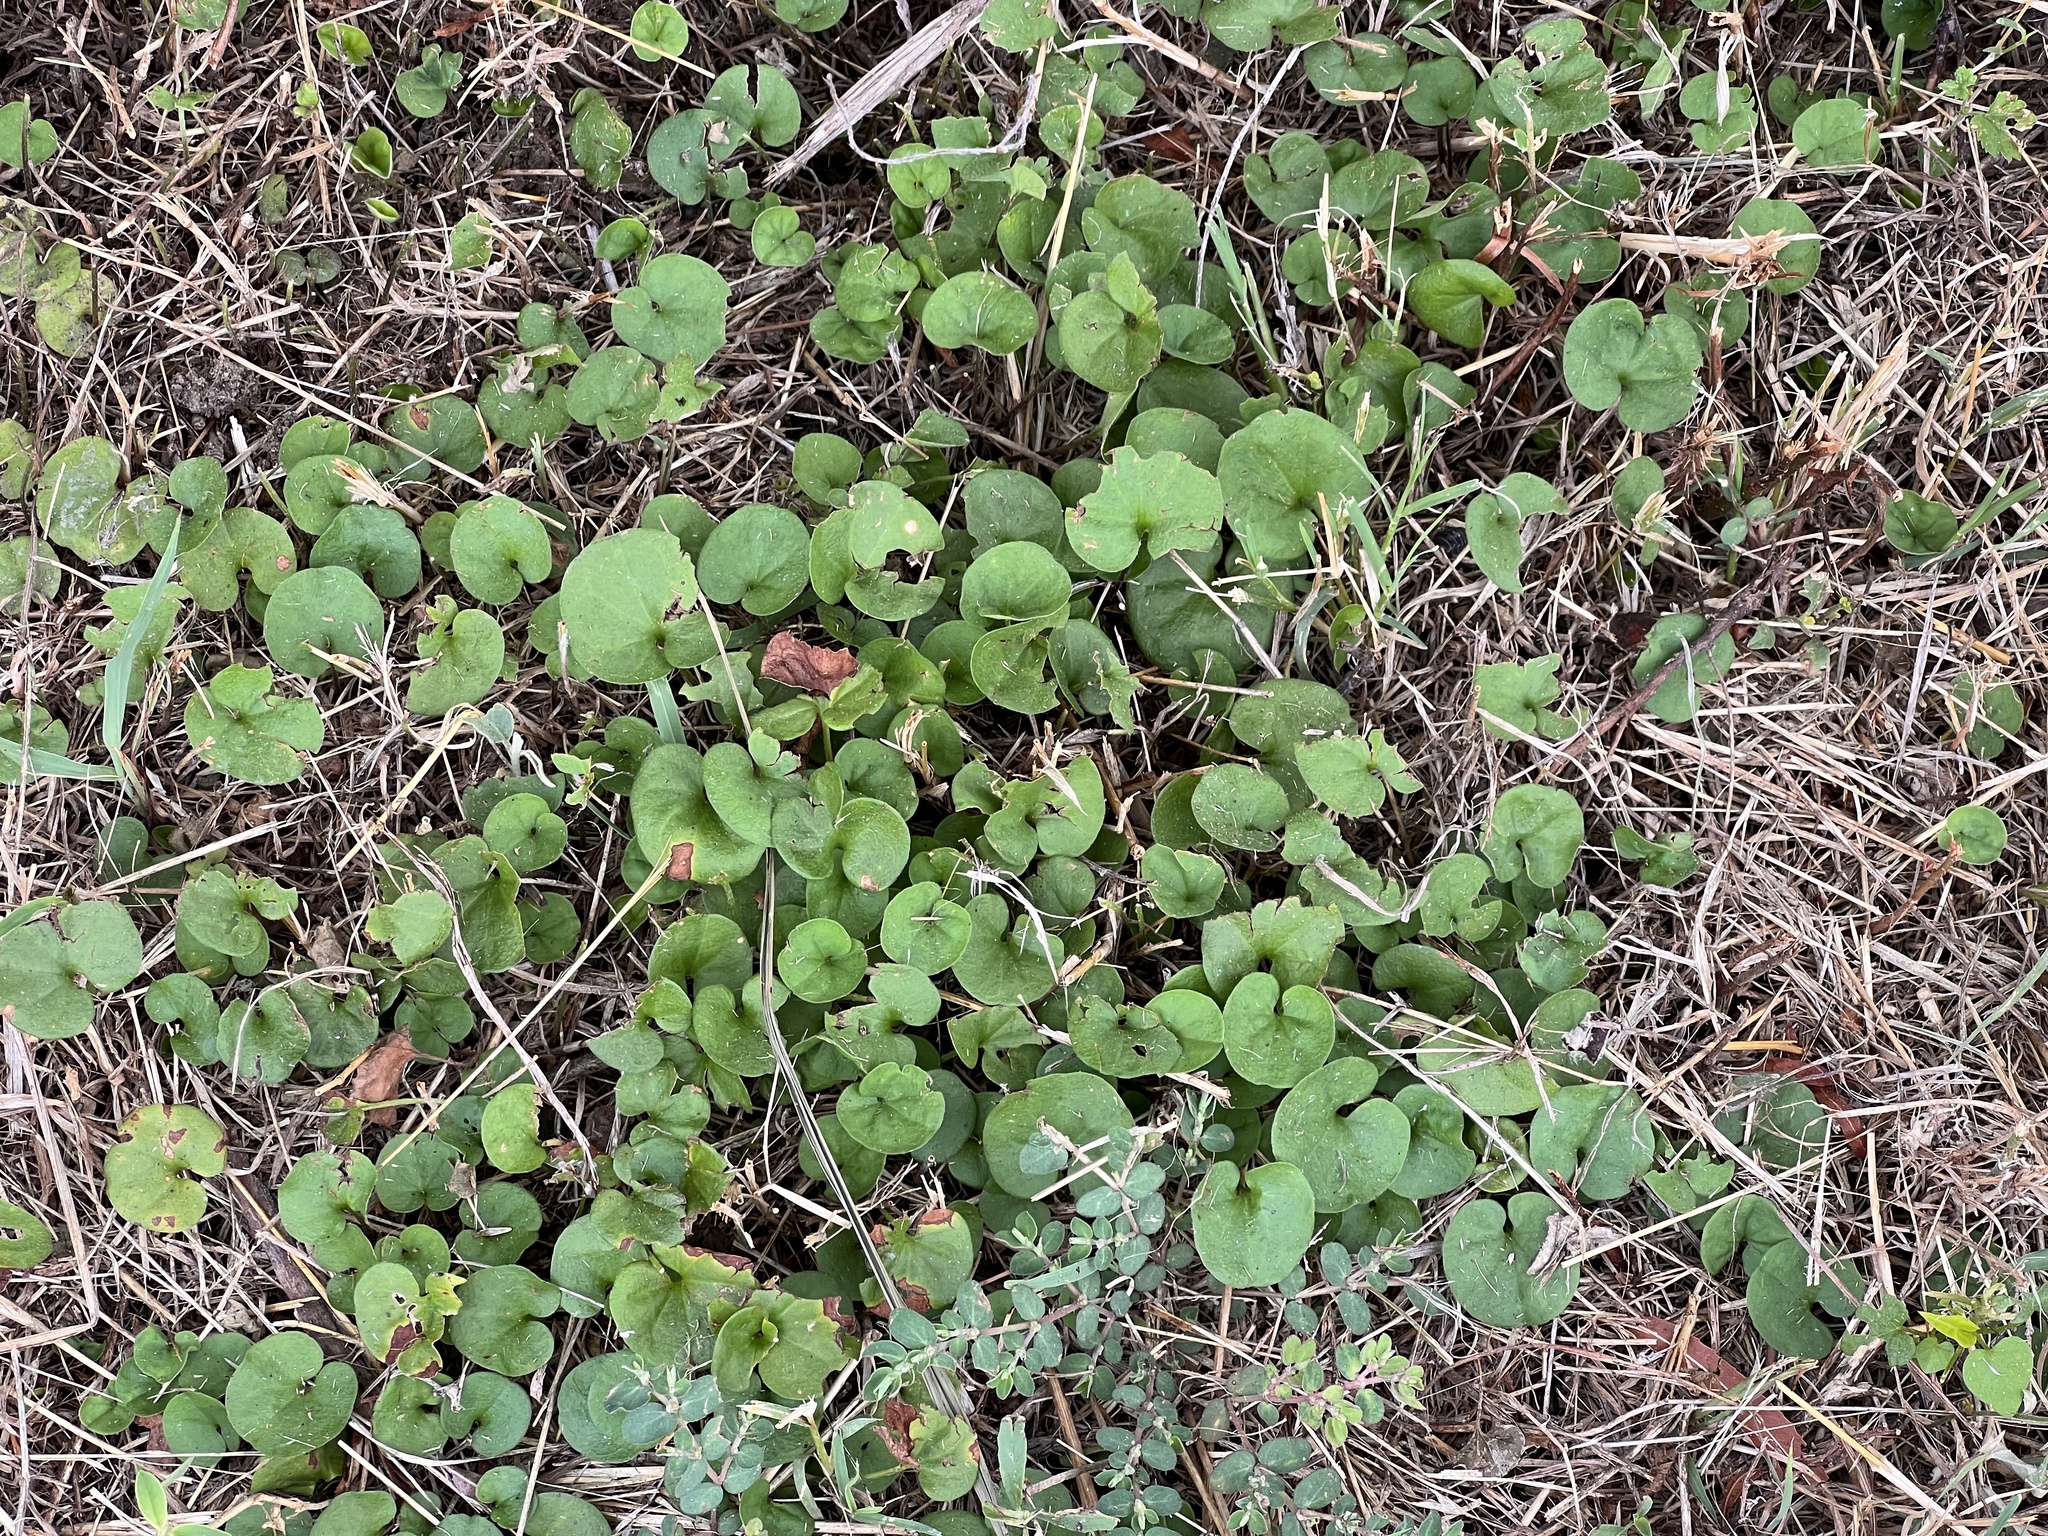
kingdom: Plantae
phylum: Tracheophyta
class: Magnoliopsida
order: Solanales
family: Convolvulaceae
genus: Dichondra
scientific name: Dichondra carolinensis
